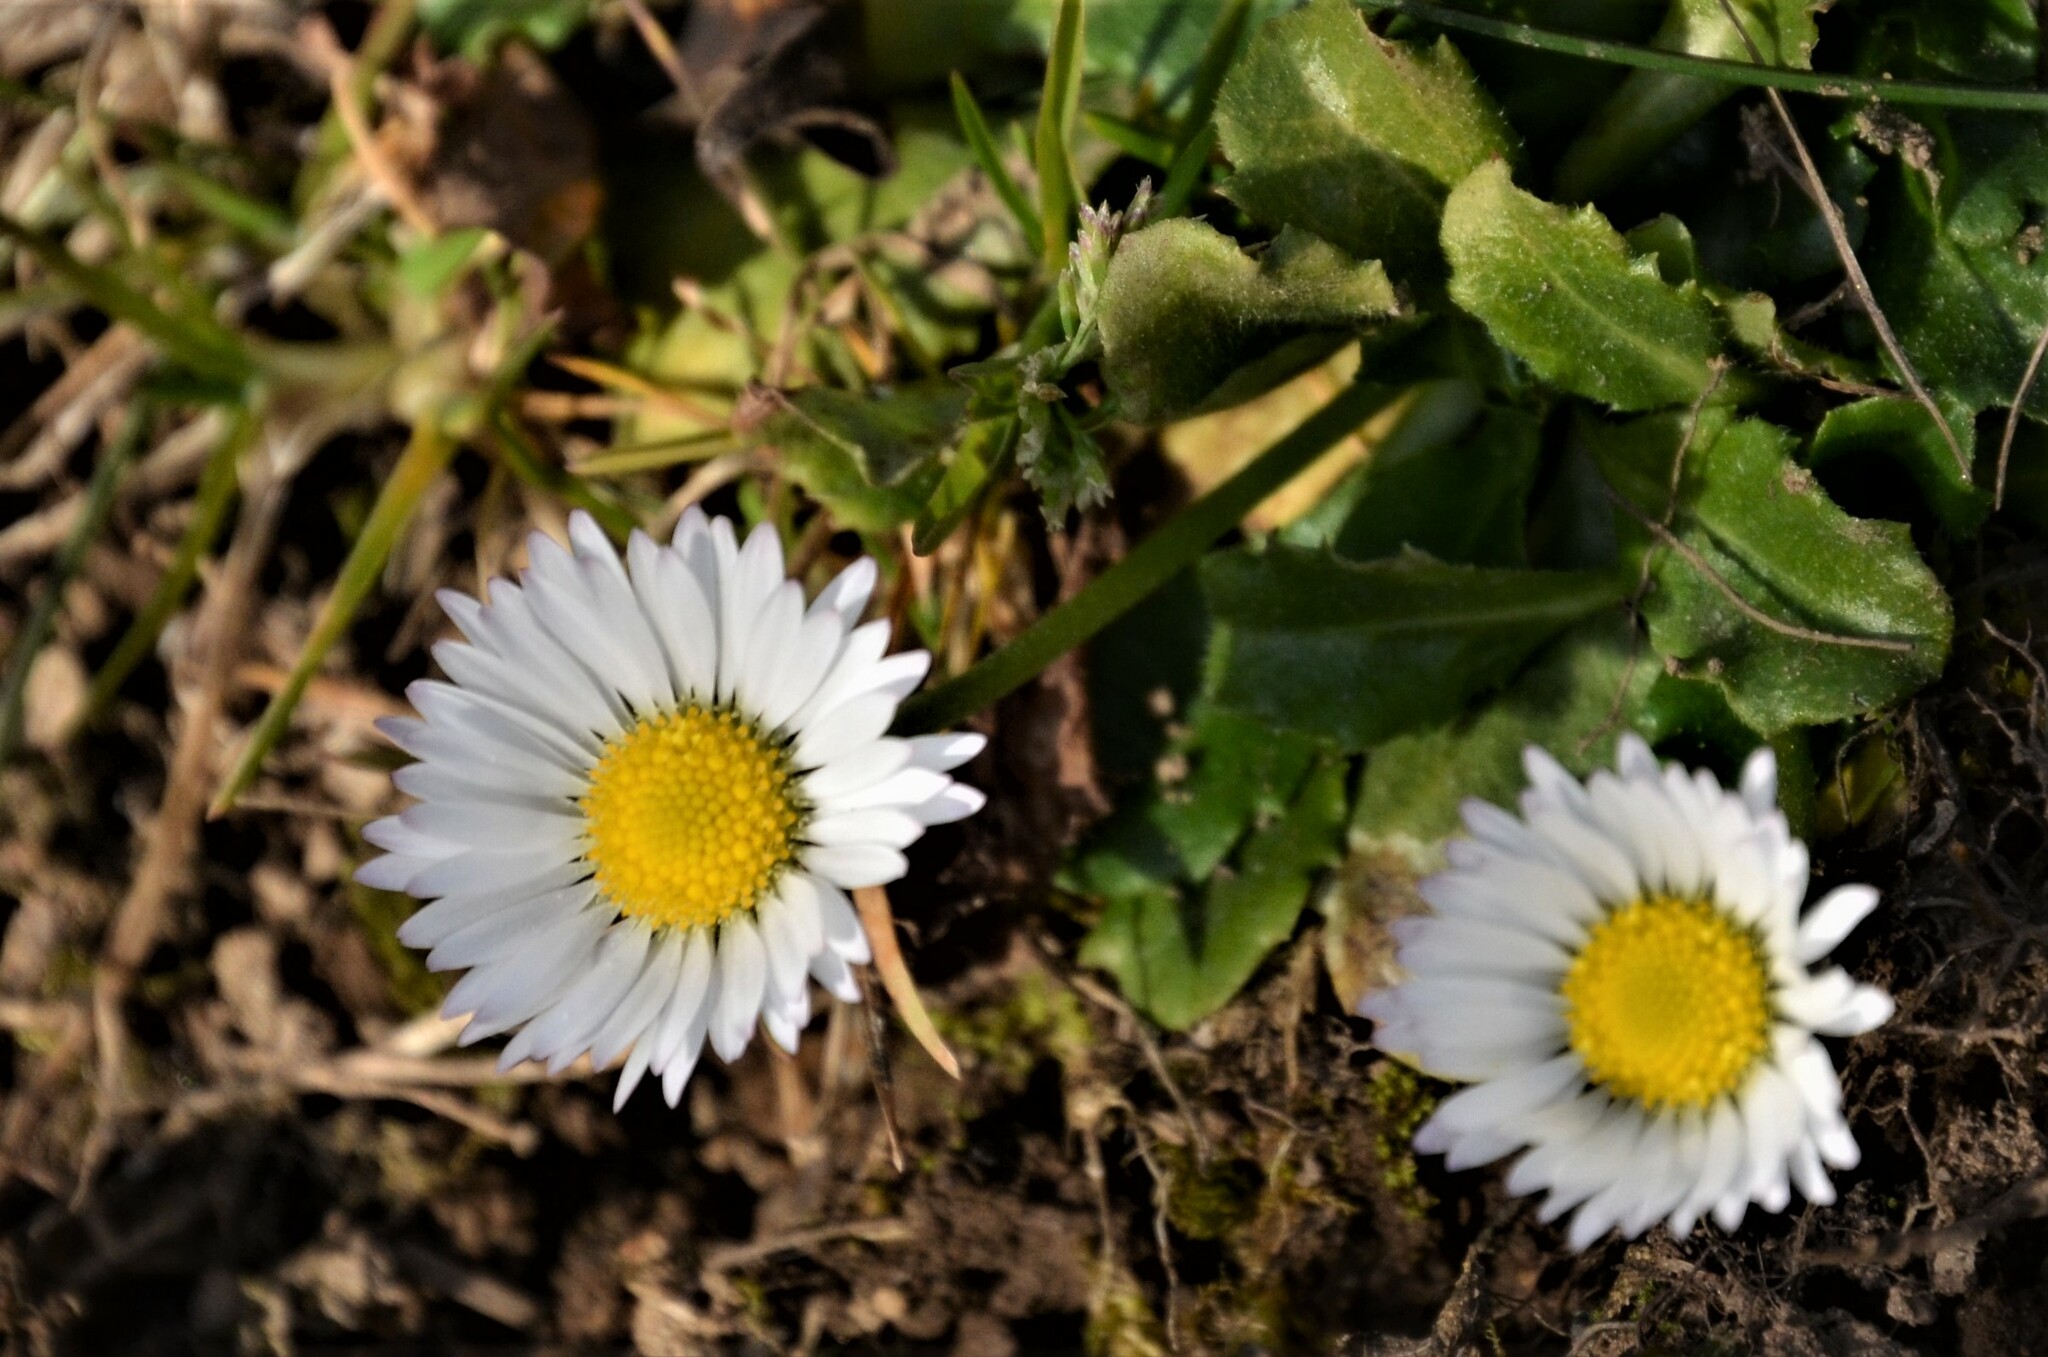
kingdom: Plantae
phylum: Tracheophyta
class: Magnoliopsida
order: Asterales
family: Asteraceae
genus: Bellis
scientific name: Bellis perennis
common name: Lawndaisy
